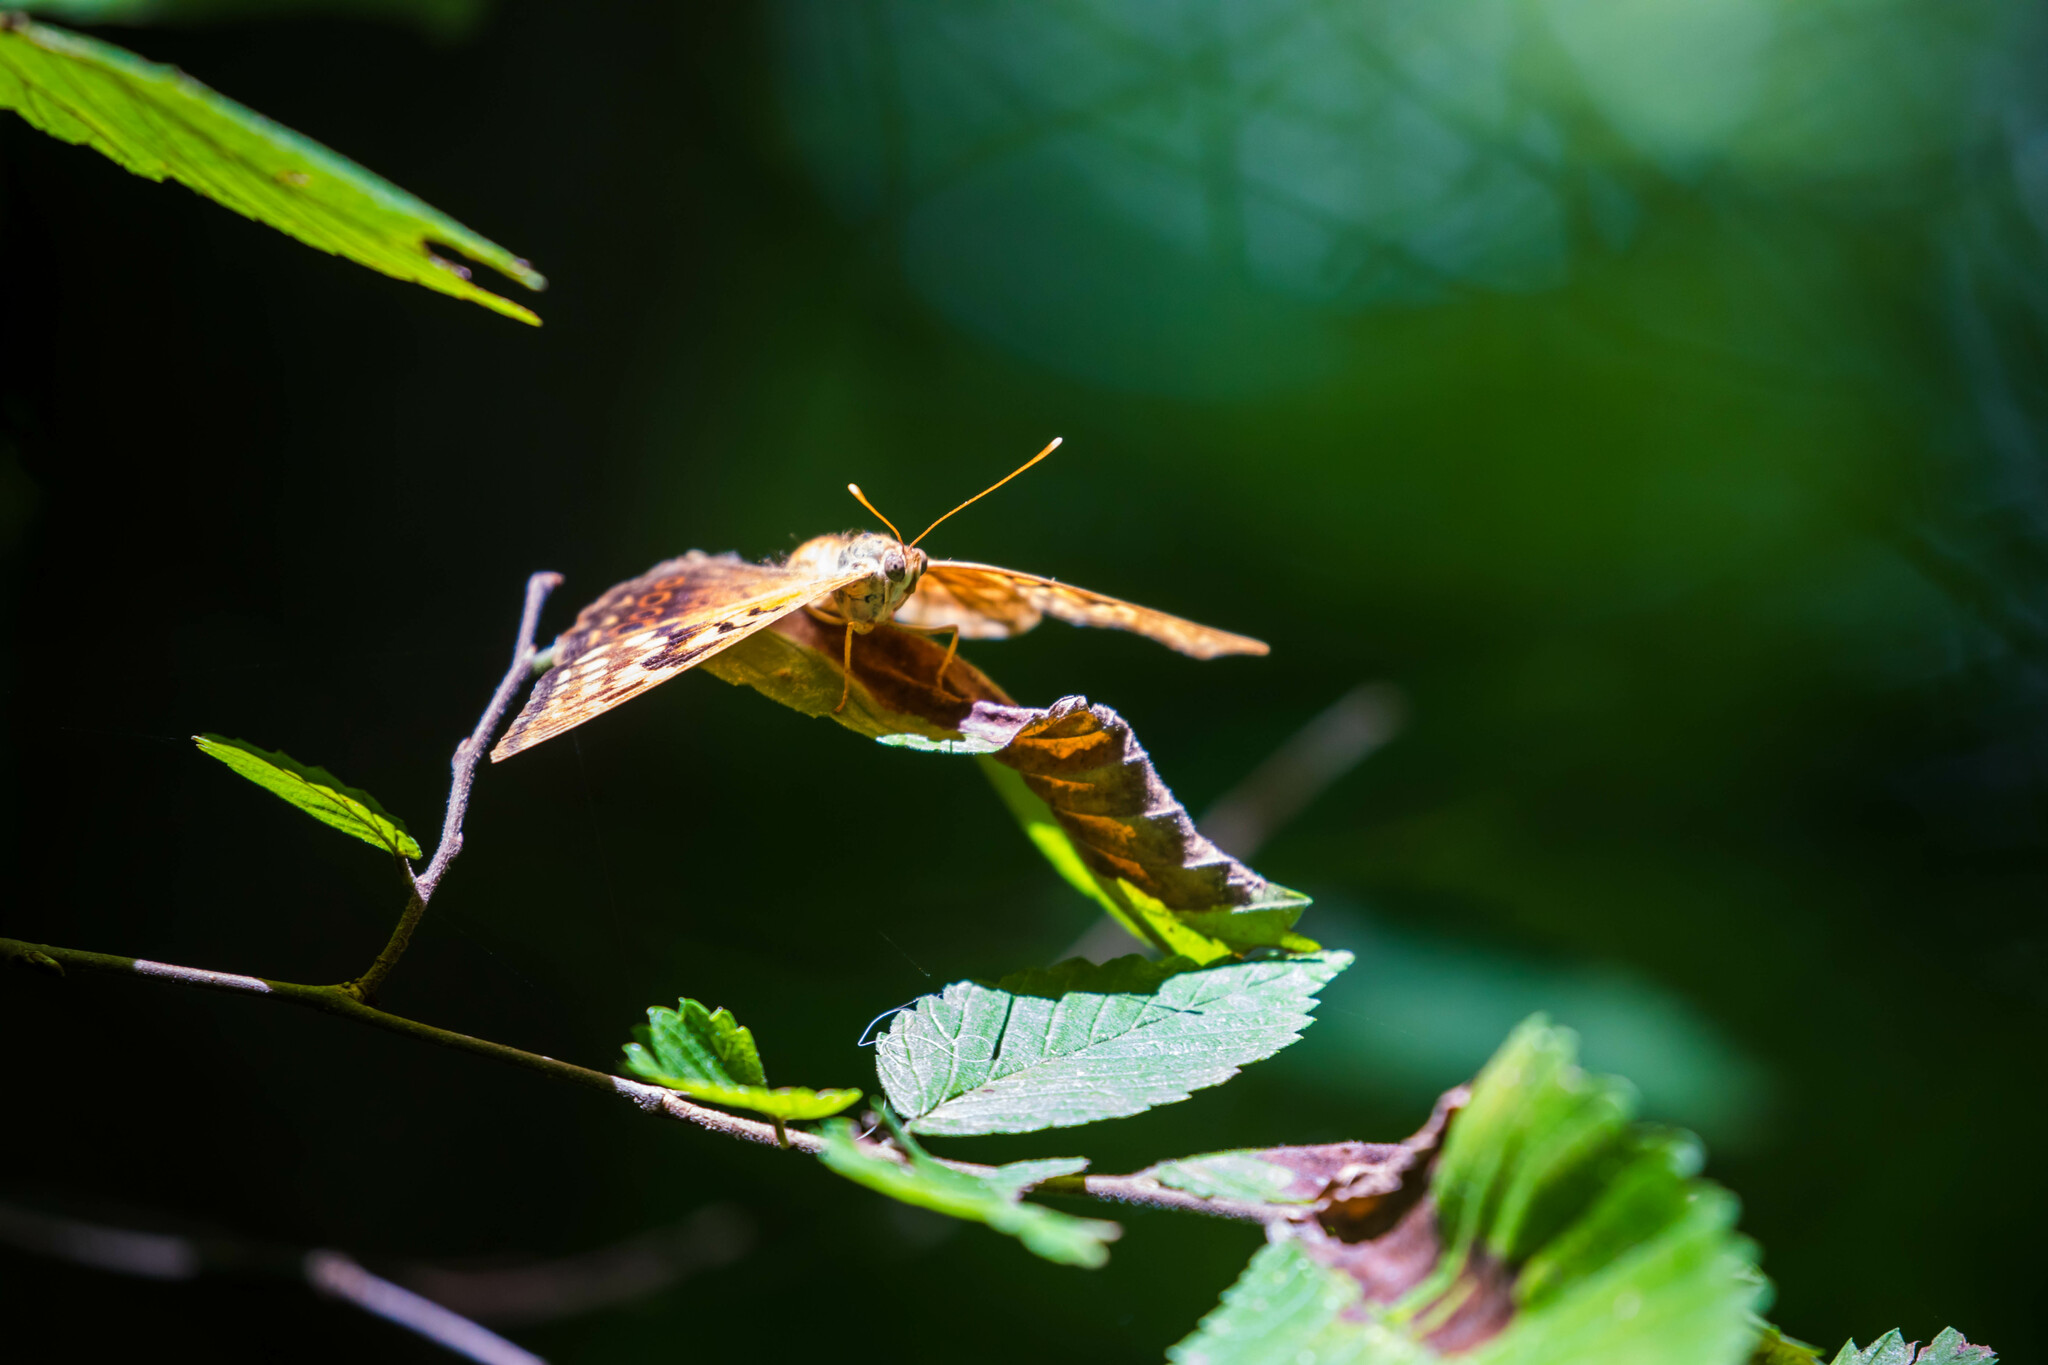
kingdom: Animalia
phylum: Arthropoda
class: Insecta
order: Lepidoptera
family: Nymphalidae
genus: Asterocampa
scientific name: Asterocampa clyton
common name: Tawny emperor
